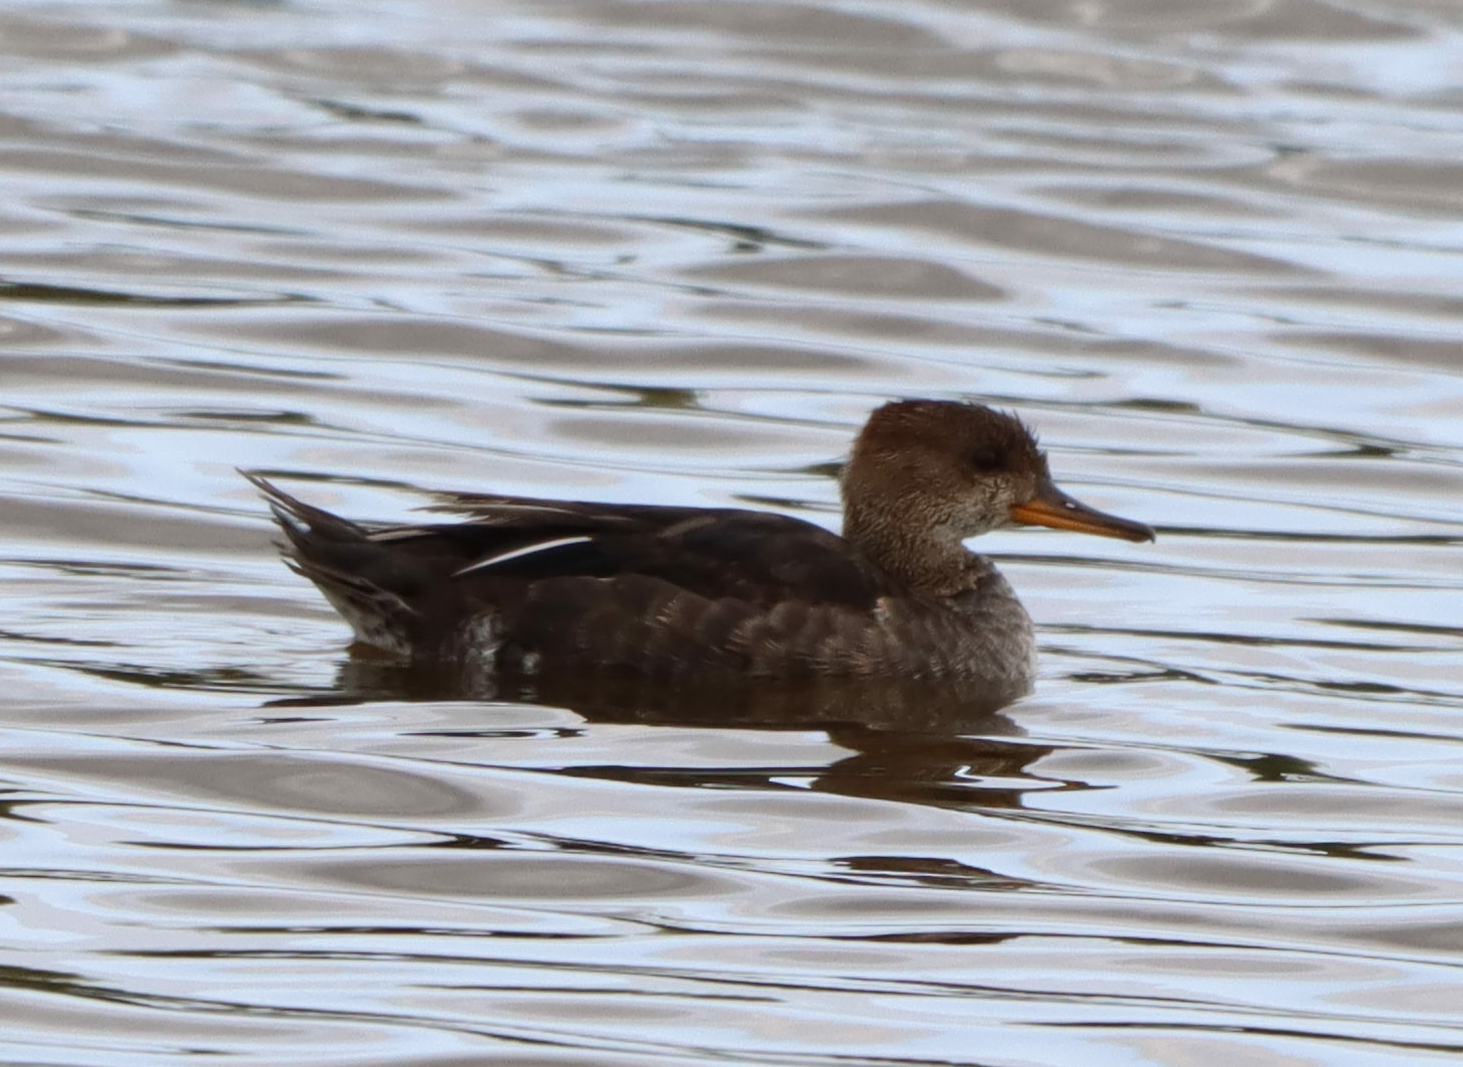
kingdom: Animalia
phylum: Chordata
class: Aves
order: Anseriformes
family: Anatidae
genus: Lophodytes
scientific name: Lophodytes cucullatus
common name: Hooded merganser
